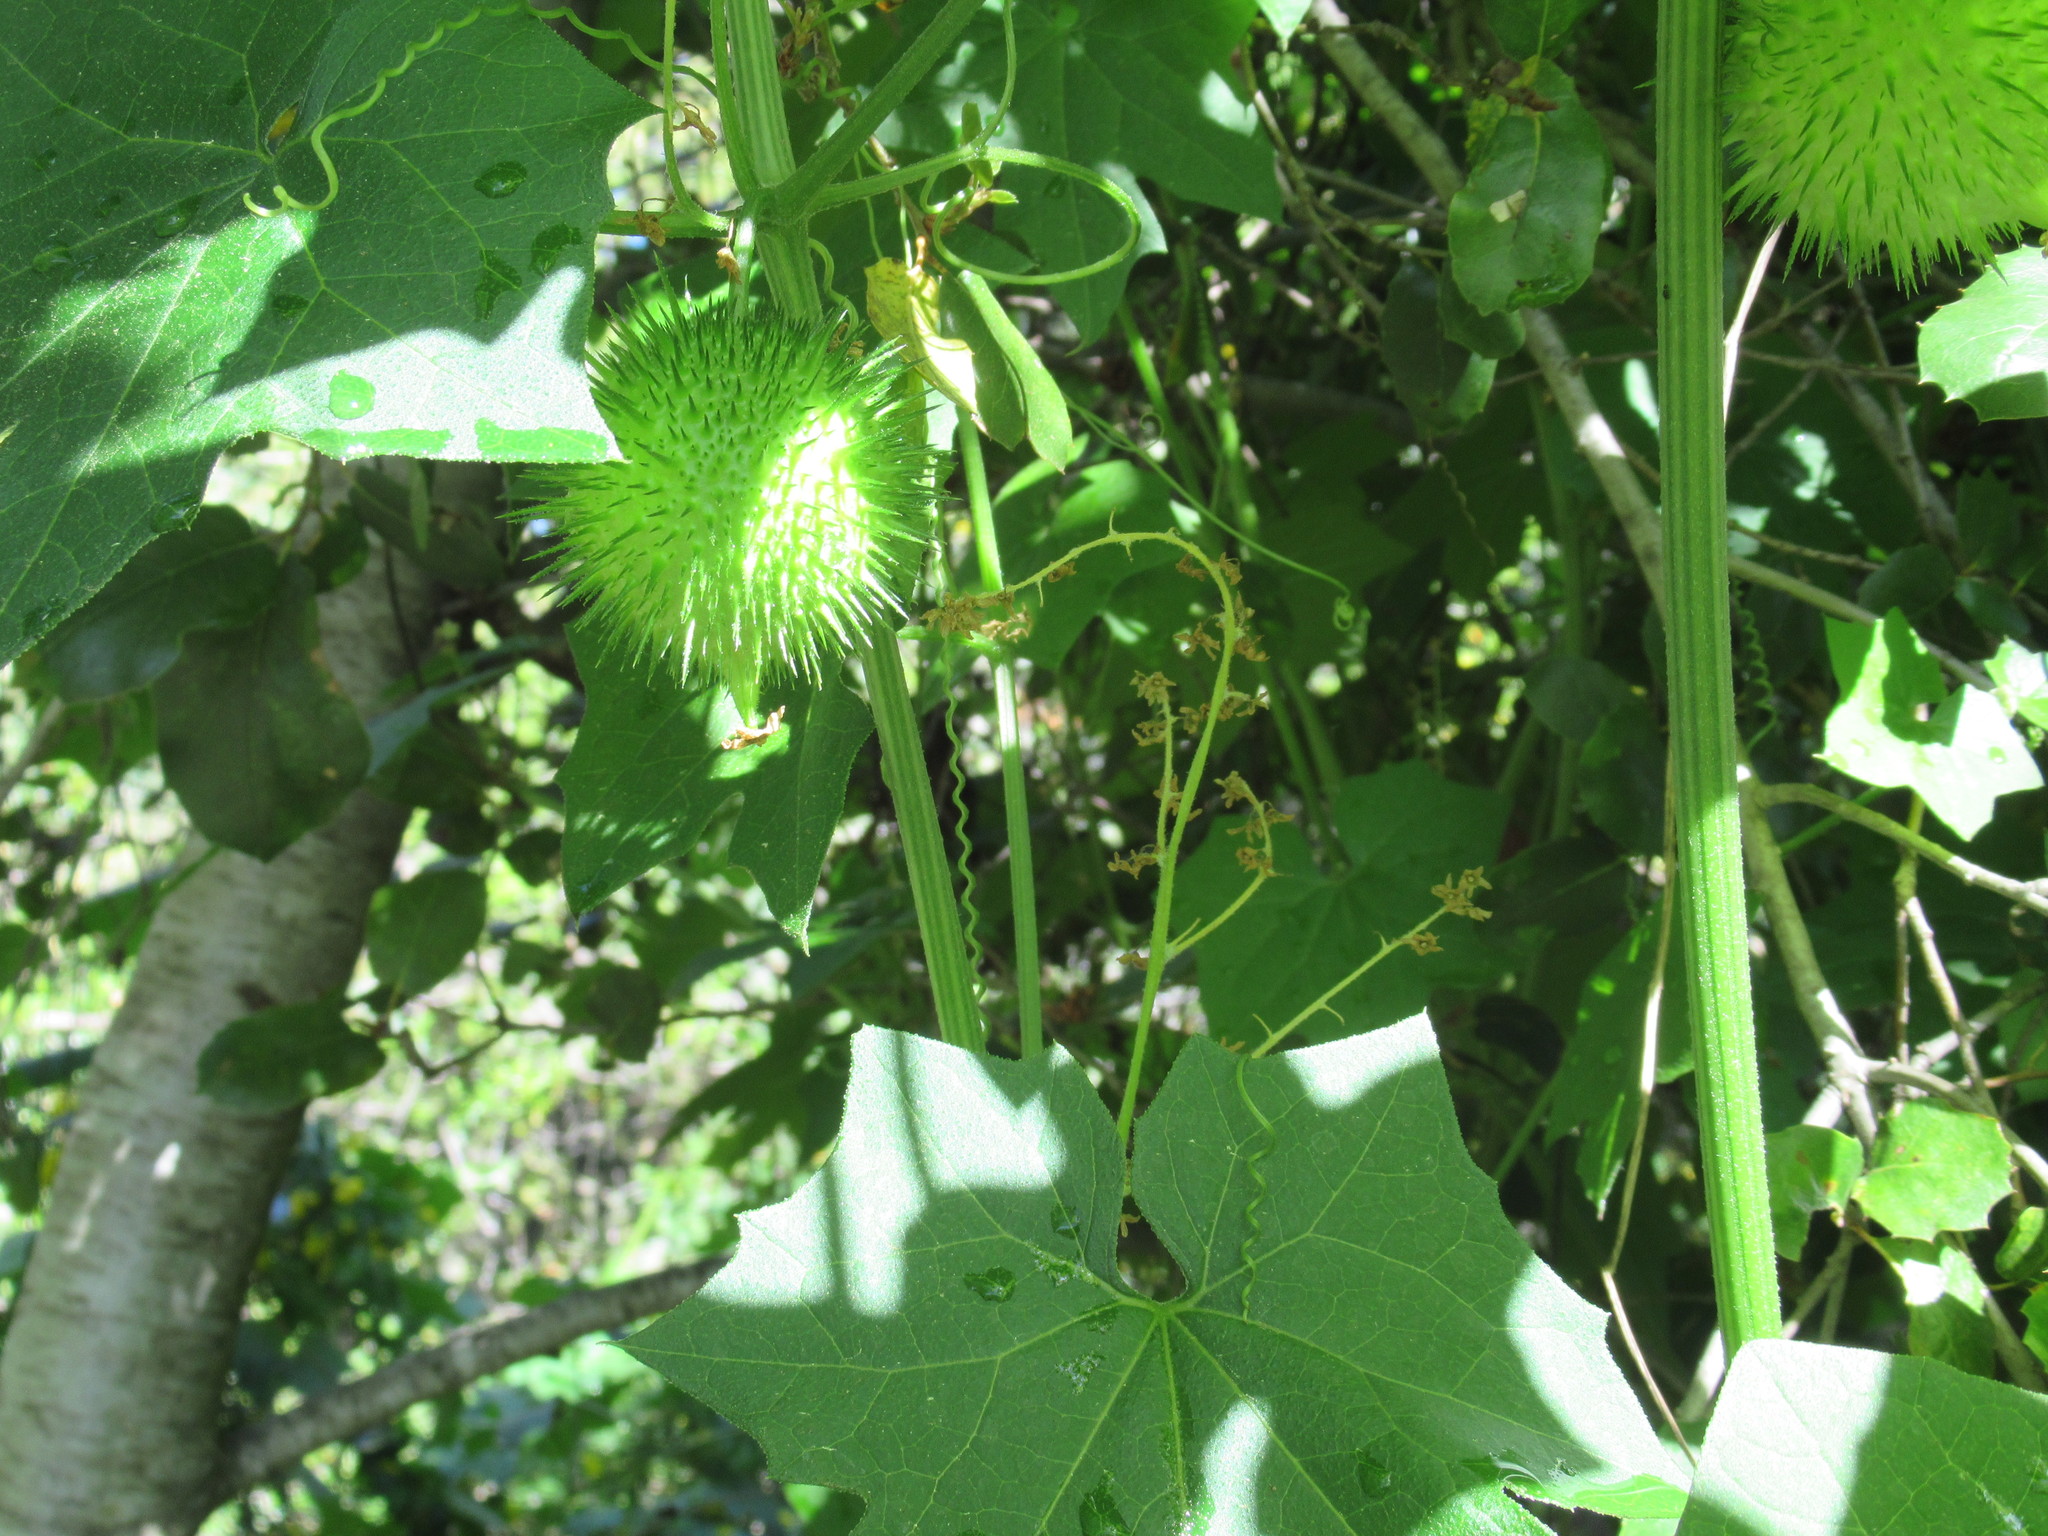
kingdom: Plantae
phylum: Tracheophyta
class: Magnoliopsida
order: Cucurbitales
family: Cucurbitaceae
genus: Marah
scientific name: Marah fabacea
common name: California manroot
